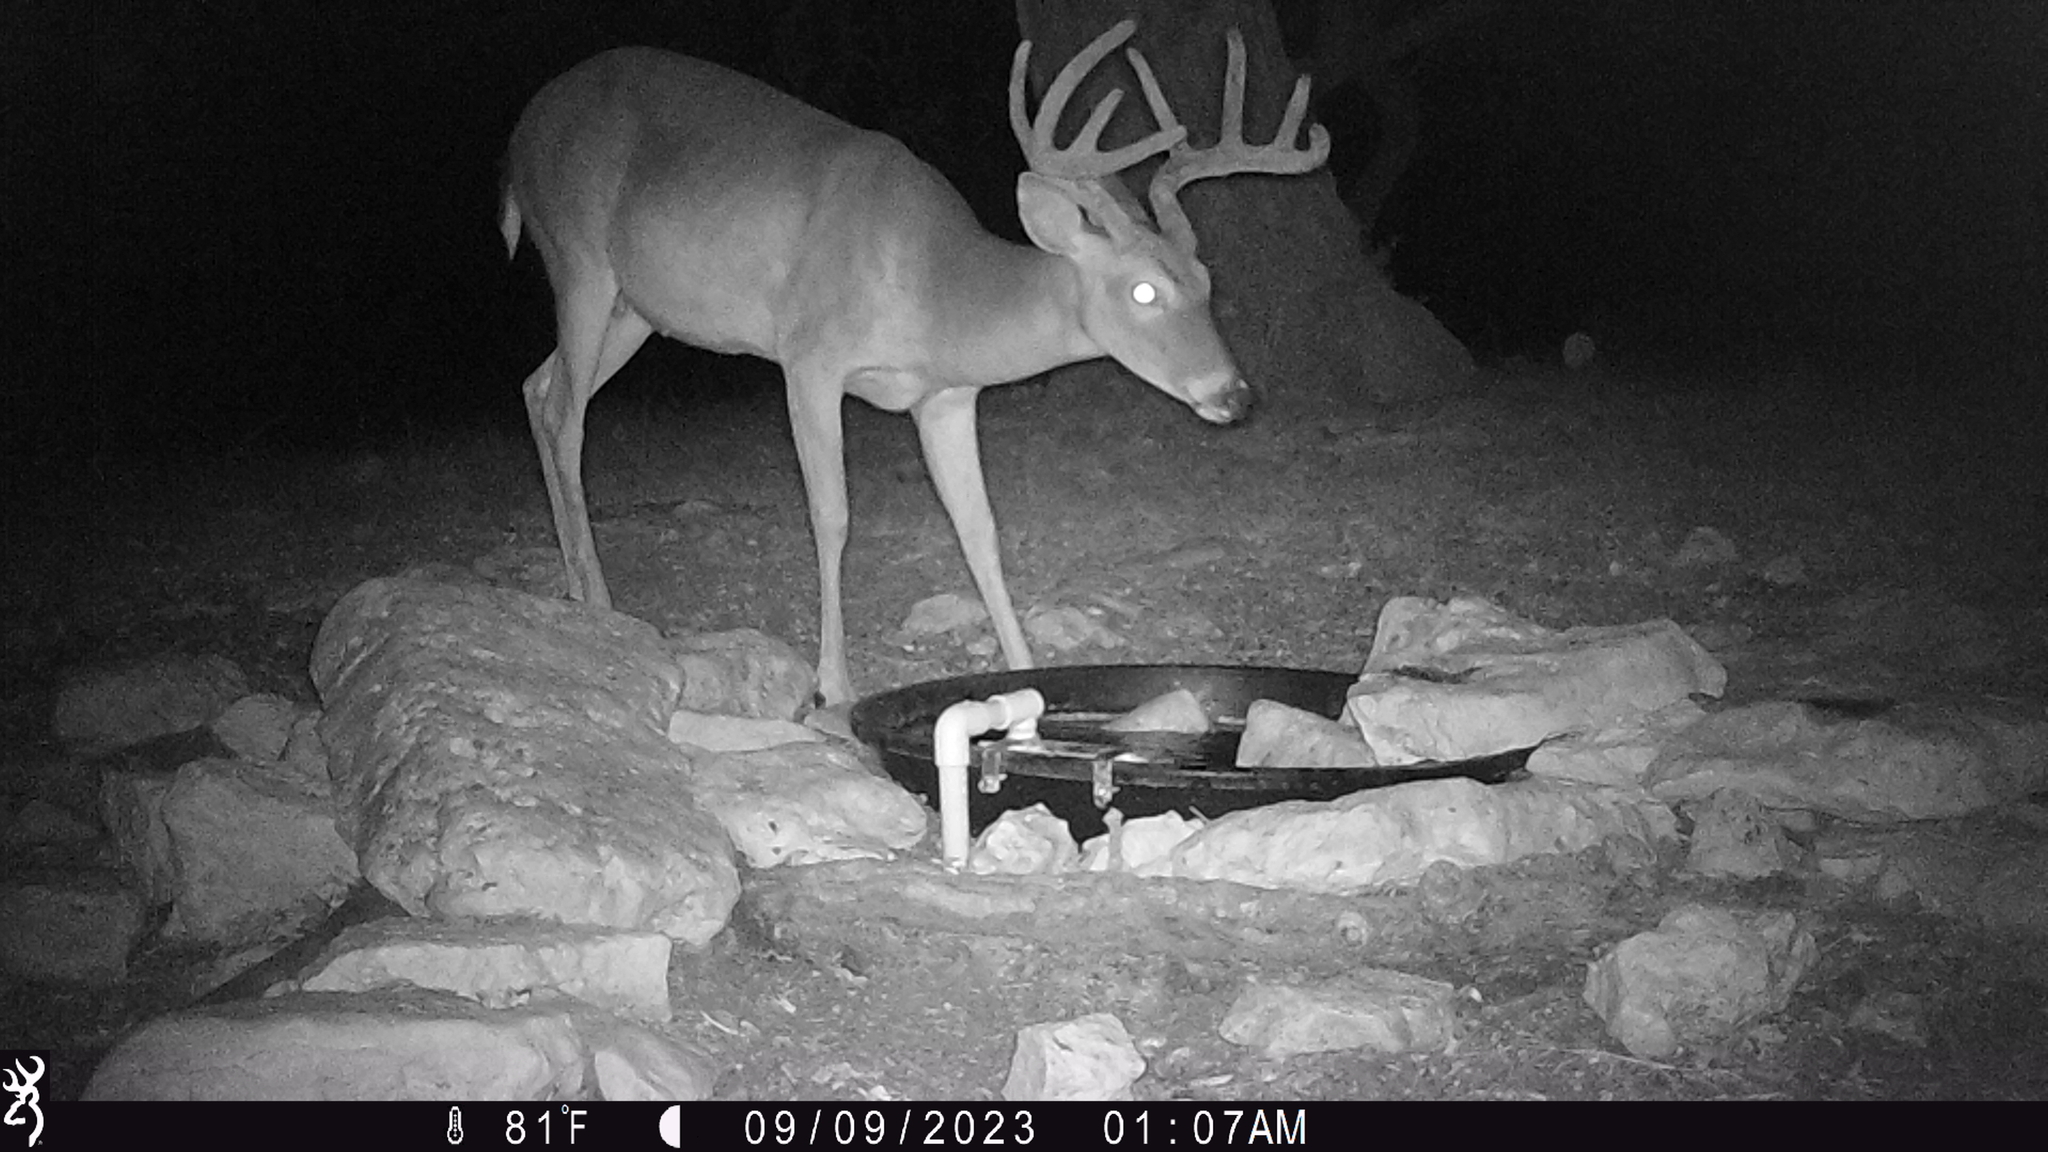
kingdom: Animalia
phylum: Chordata
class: Mammalia
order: Artiodactyla
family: Cervidae
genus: Odocoileus
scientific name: Odocoileus virginianus
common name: White-tailed deer
